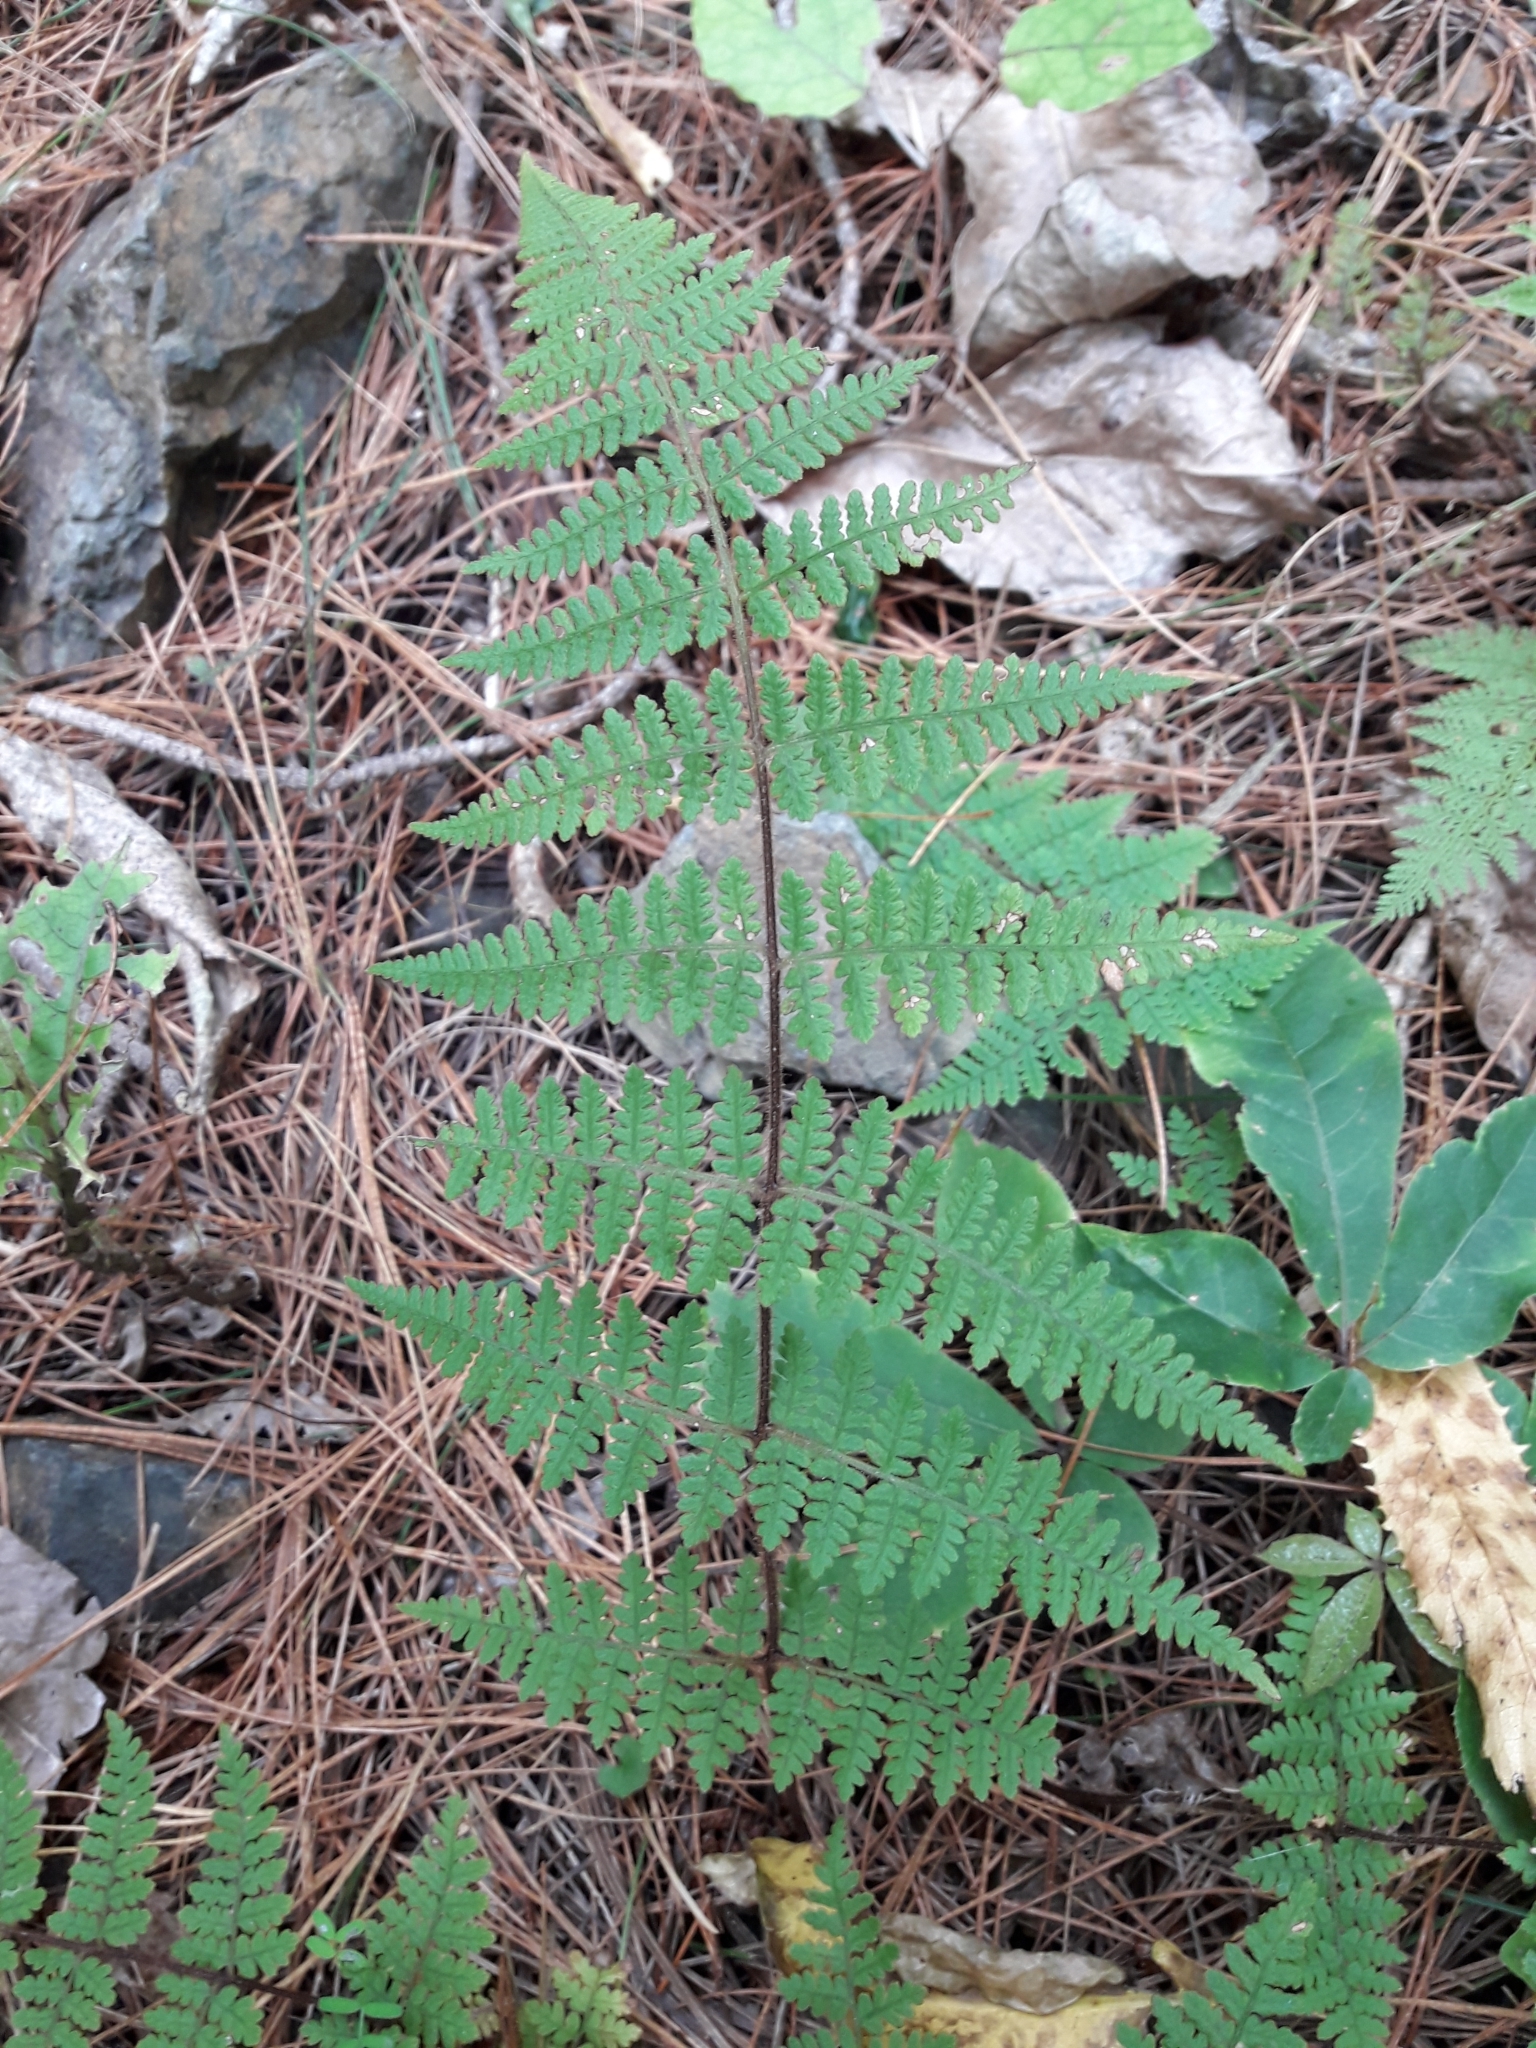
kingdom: Plantae
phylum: Tracheophyta
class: Polypodiopsida
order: Polypodiales
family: Dennstaedtiaceae
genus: Hypolepis
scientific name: Hypolepis rugosula
